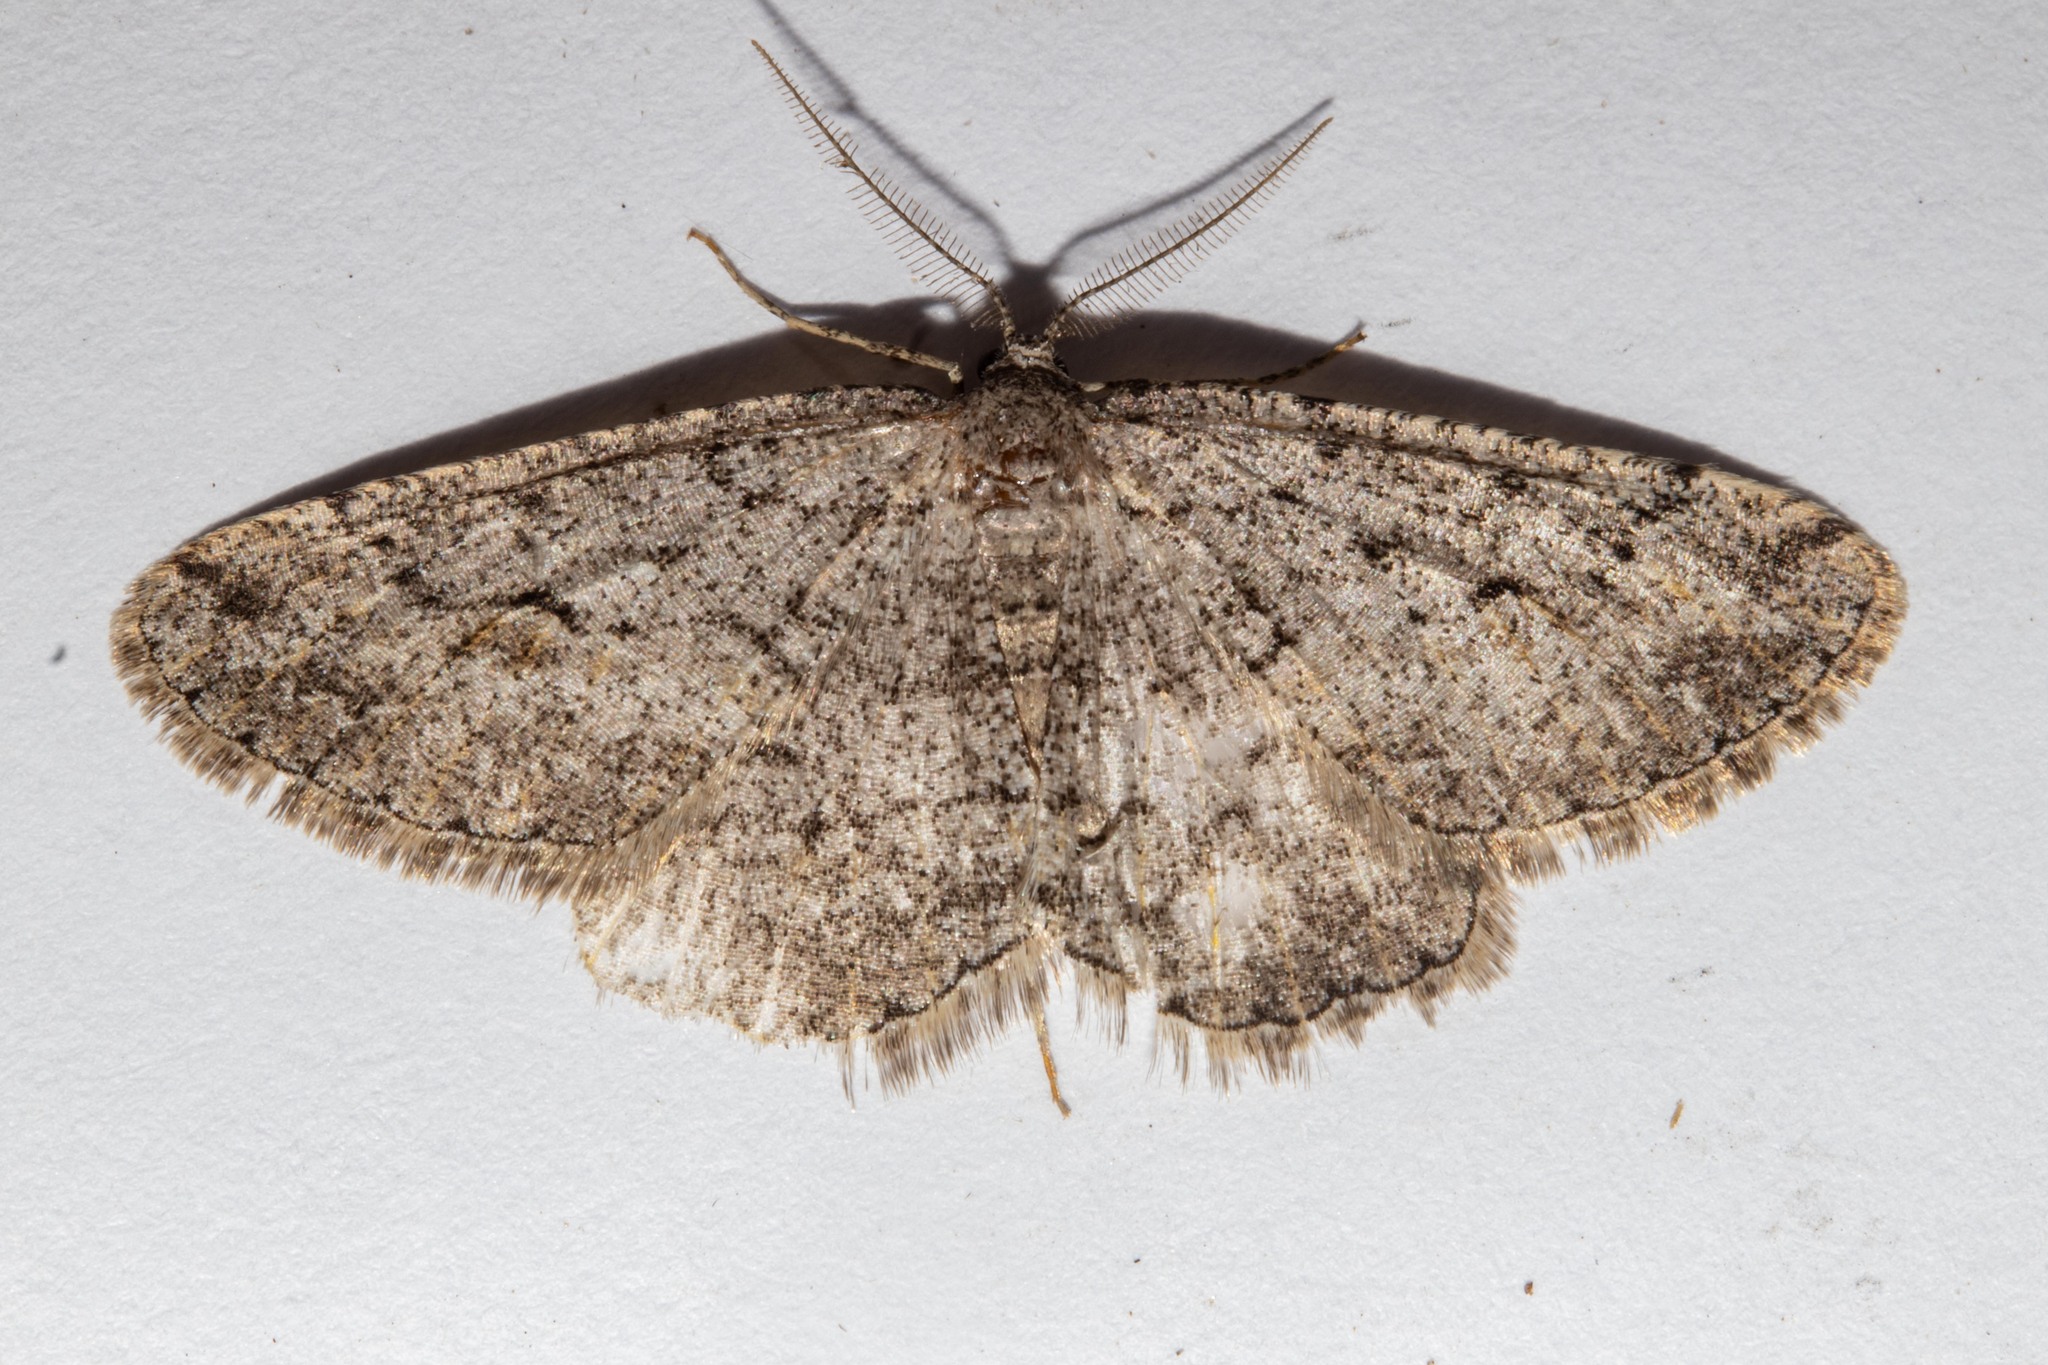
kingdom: Animalia
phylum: Arthropoda
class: Insecta
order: Lepidoptera
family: Geometridae
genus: Zermizinga
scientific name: Zermizinga indocilisaria
